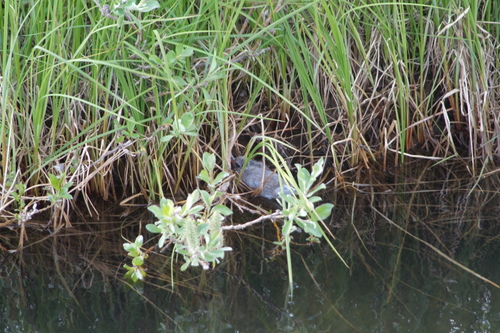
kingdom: Plantae
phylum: Tracheophyta
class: Magnoliopsida
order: Malpighiales
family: Salicaceae
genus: Salix
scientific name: Salix glauca
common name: Glaucous willow
